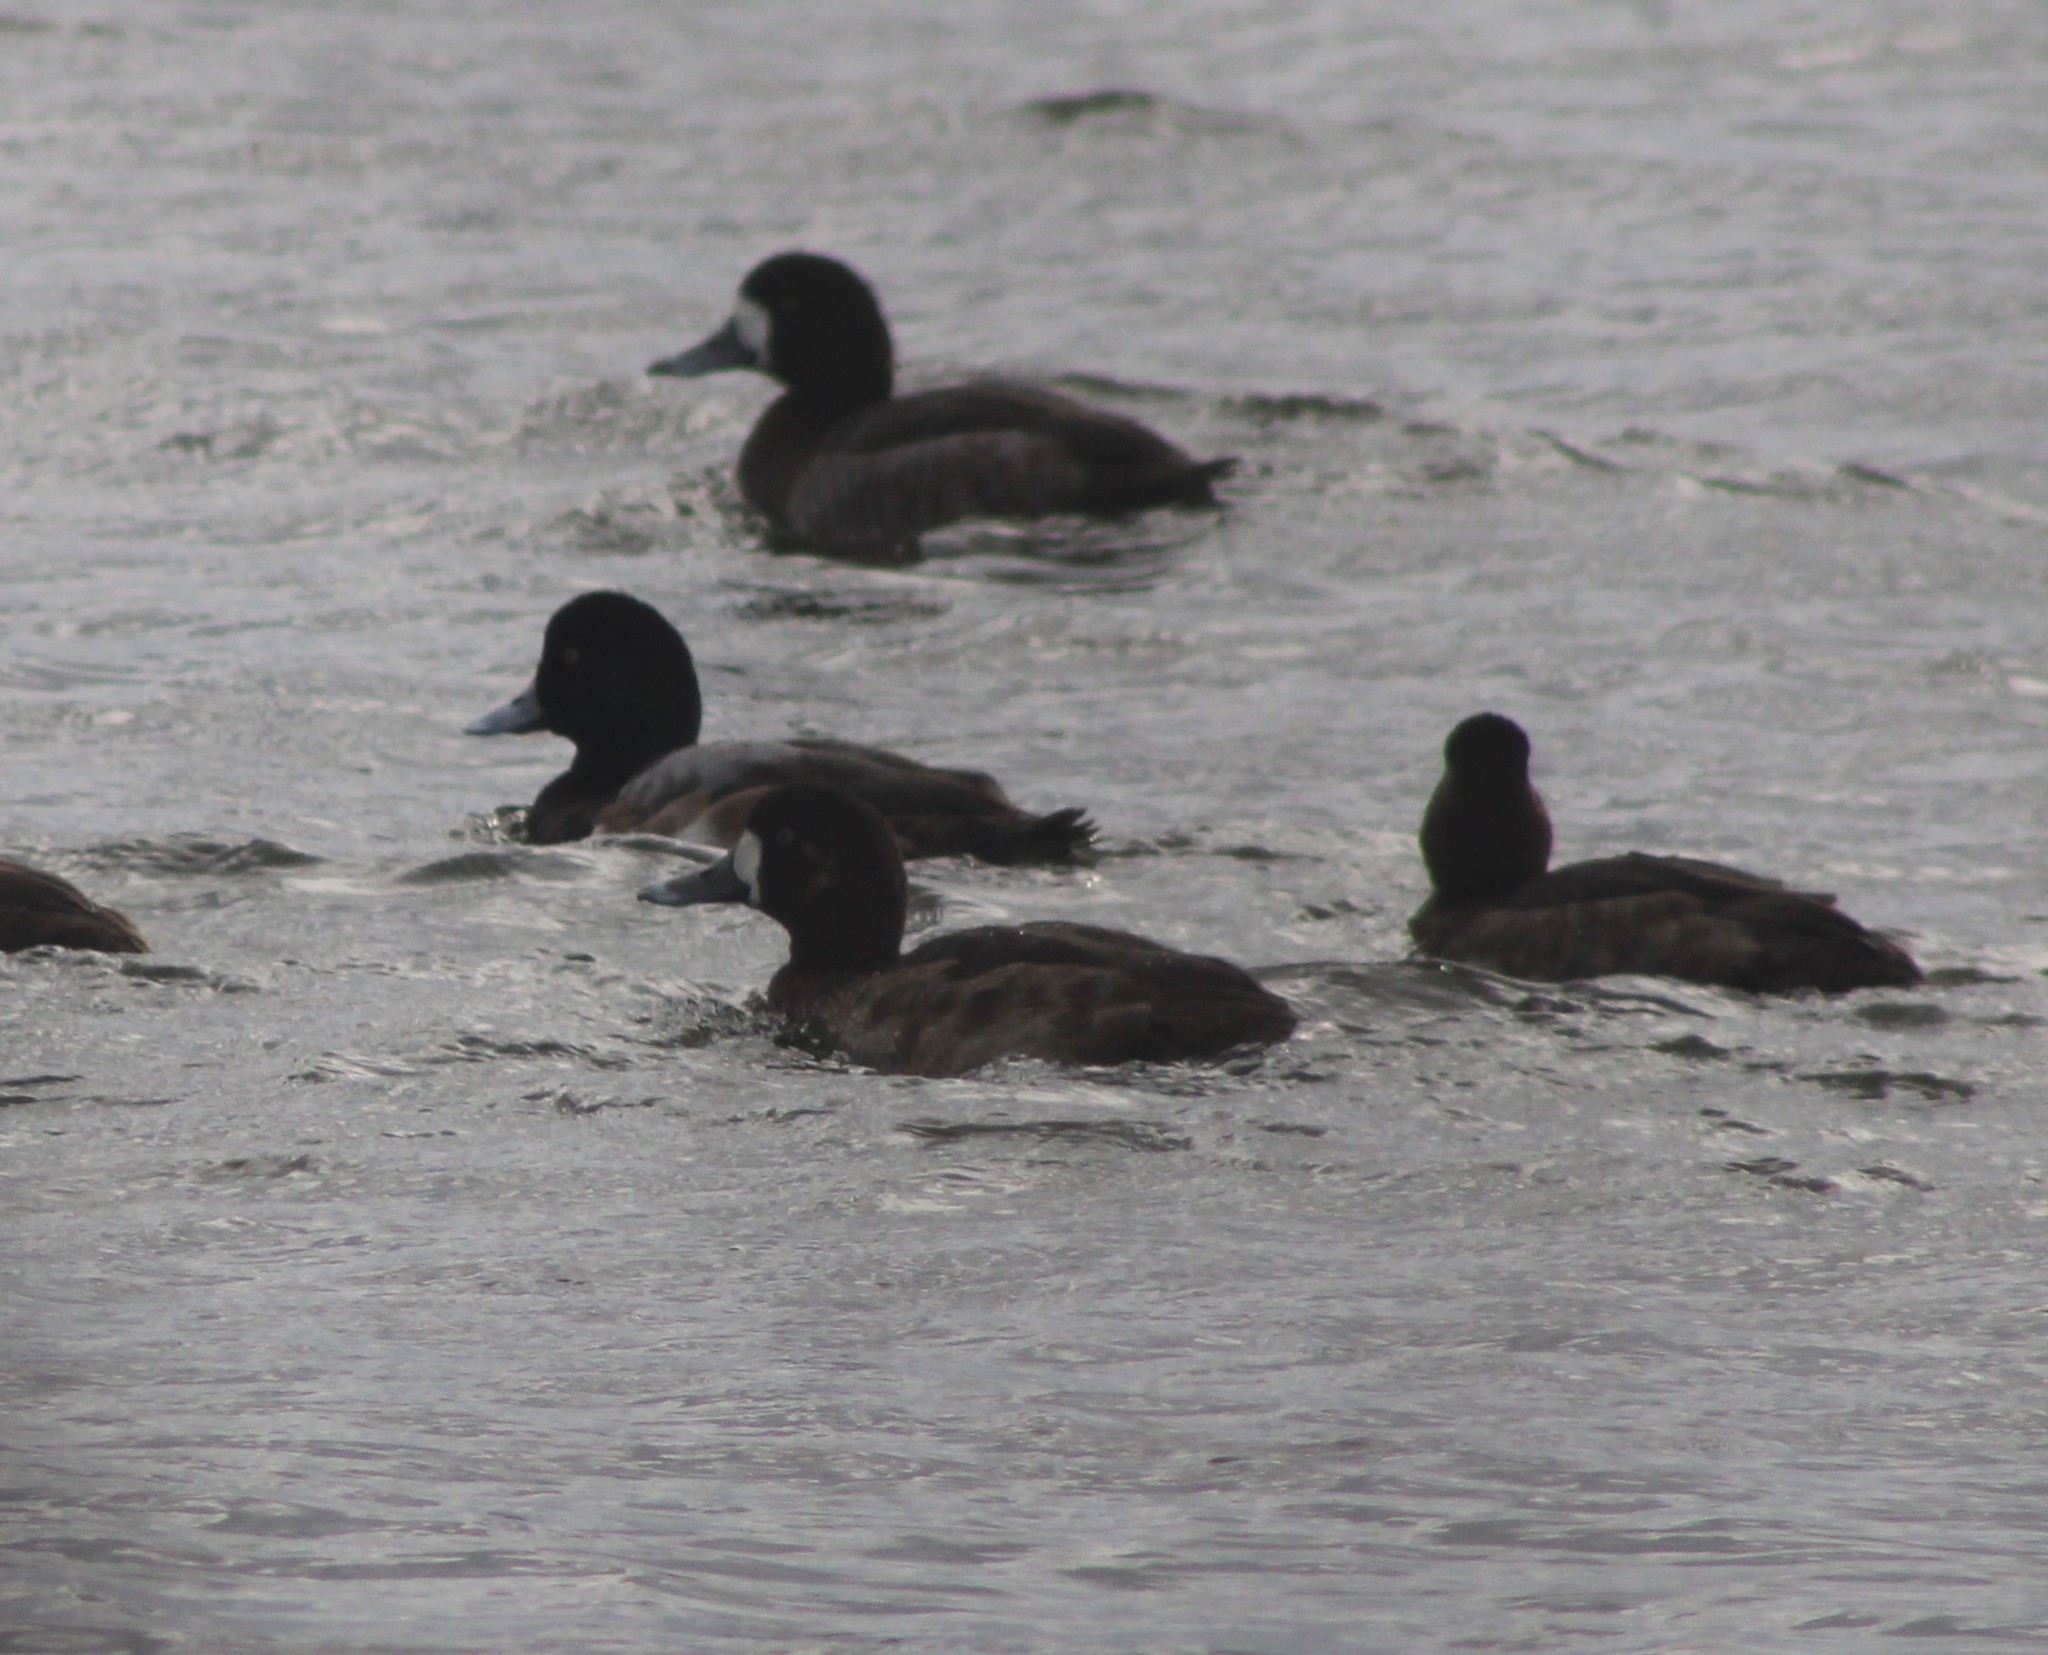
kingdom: Animalia
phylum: Chordata
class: Aves
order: Anseriformes
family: Anatidae
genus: Aythya
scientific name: Aythya marila
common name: Greater scaup
